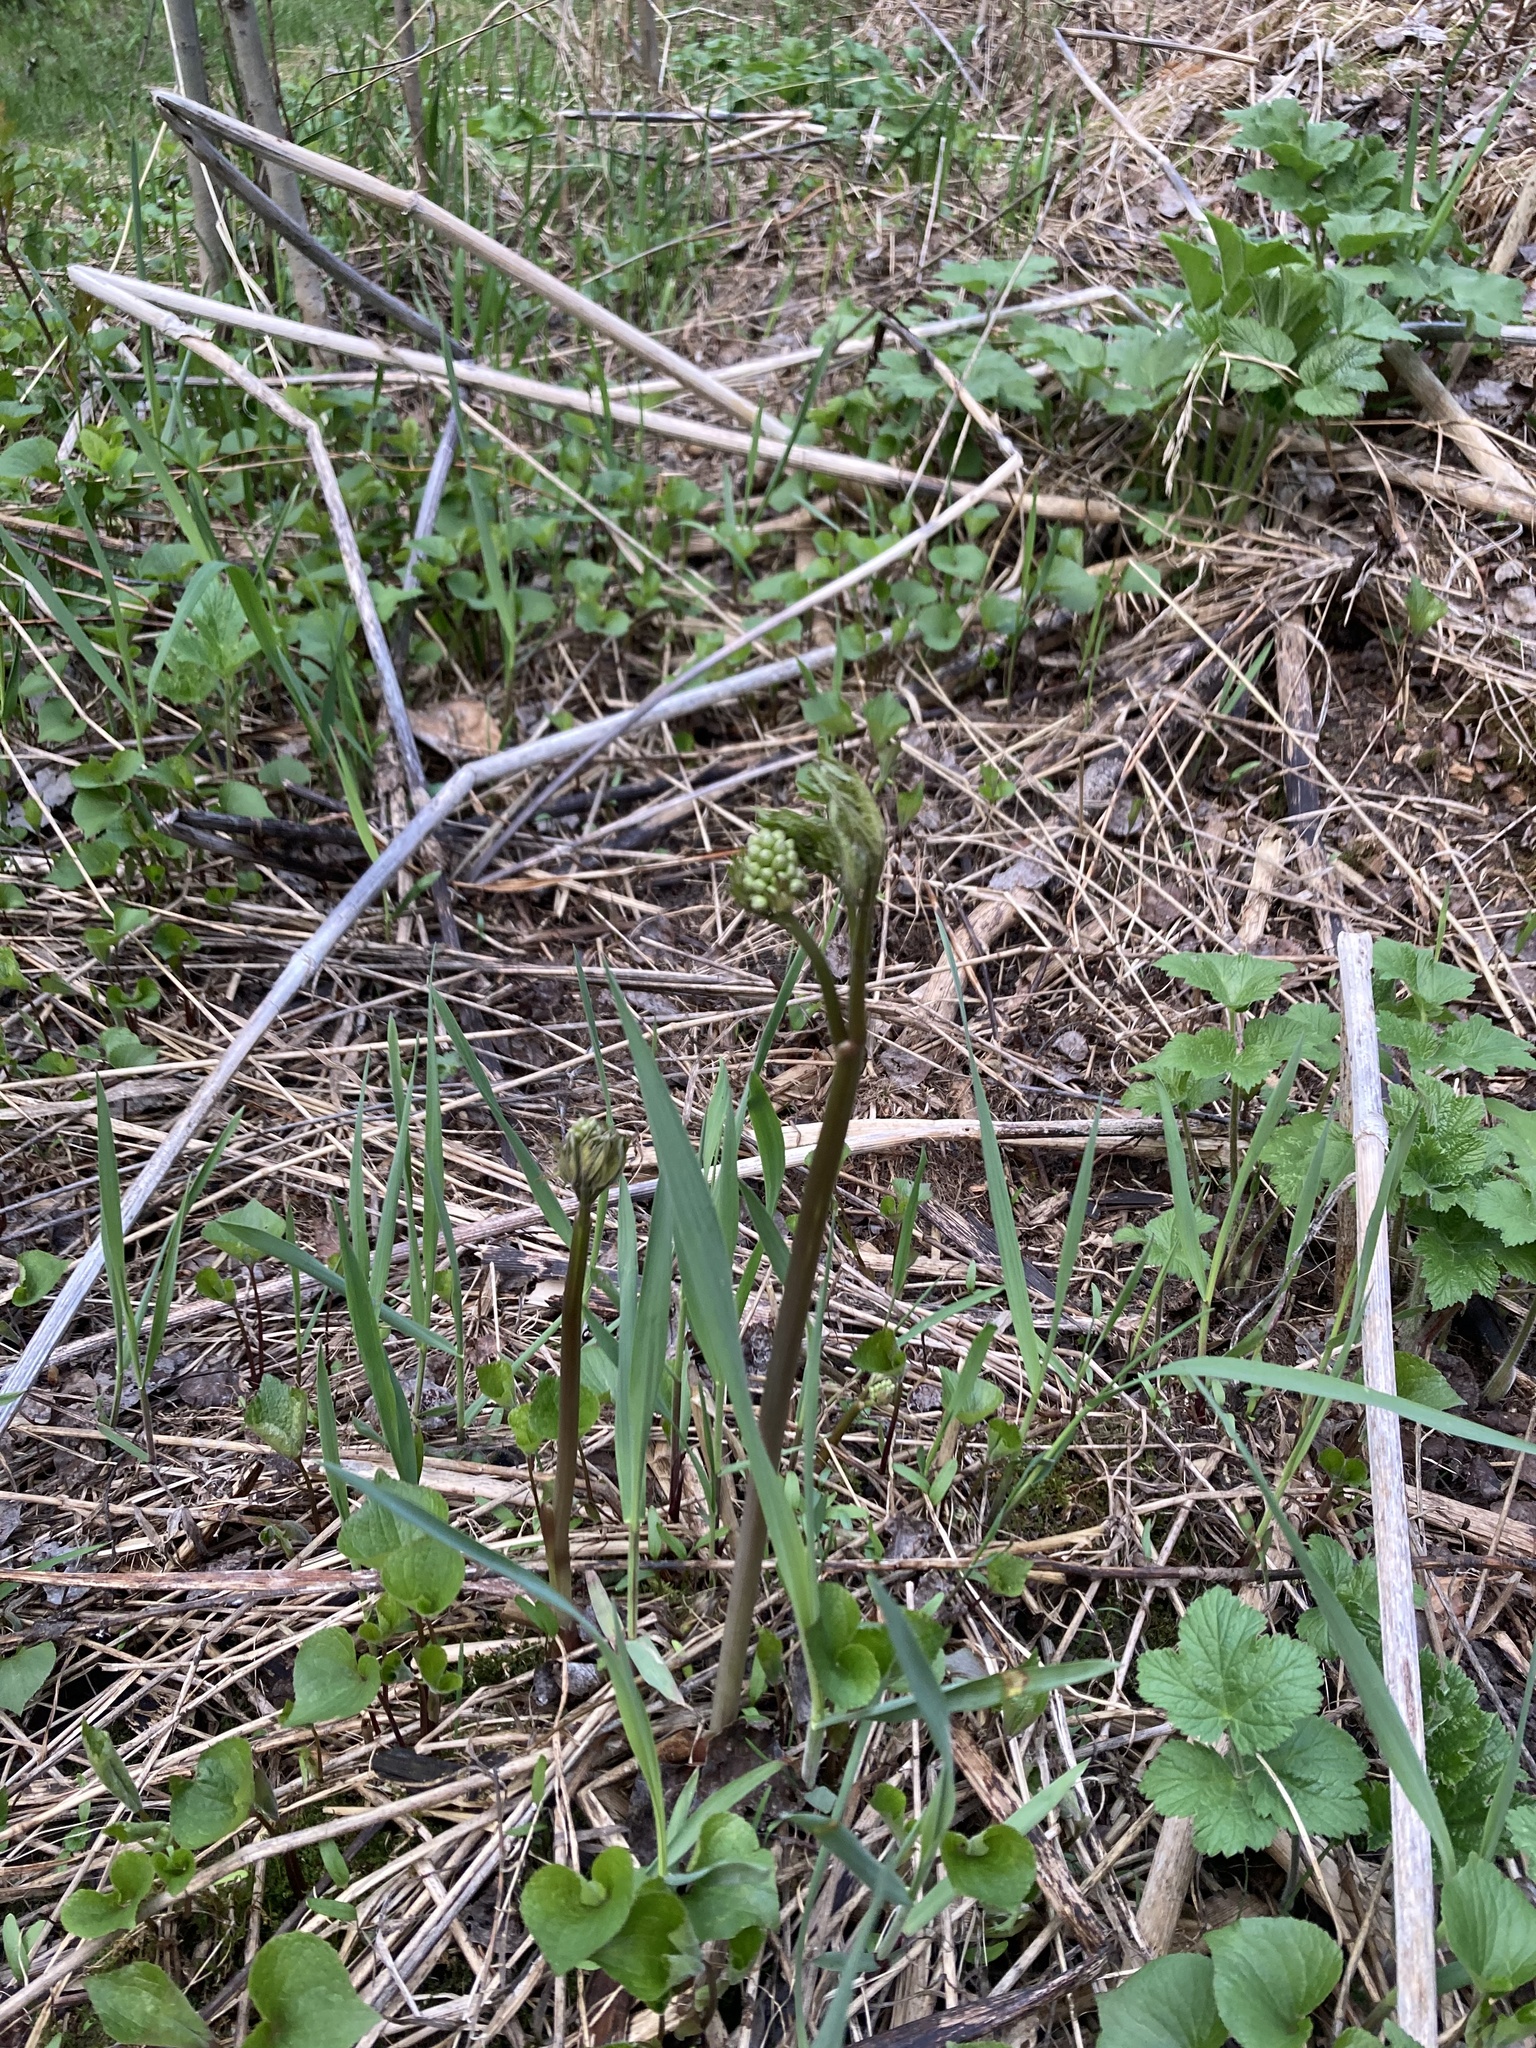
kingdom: Plantae
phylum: Tracheophyta
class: Magnoliopsida
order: Ranunculales
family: Ranunculaceae
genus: Actaea
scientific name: Actaea rubra
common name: Red baneberry
